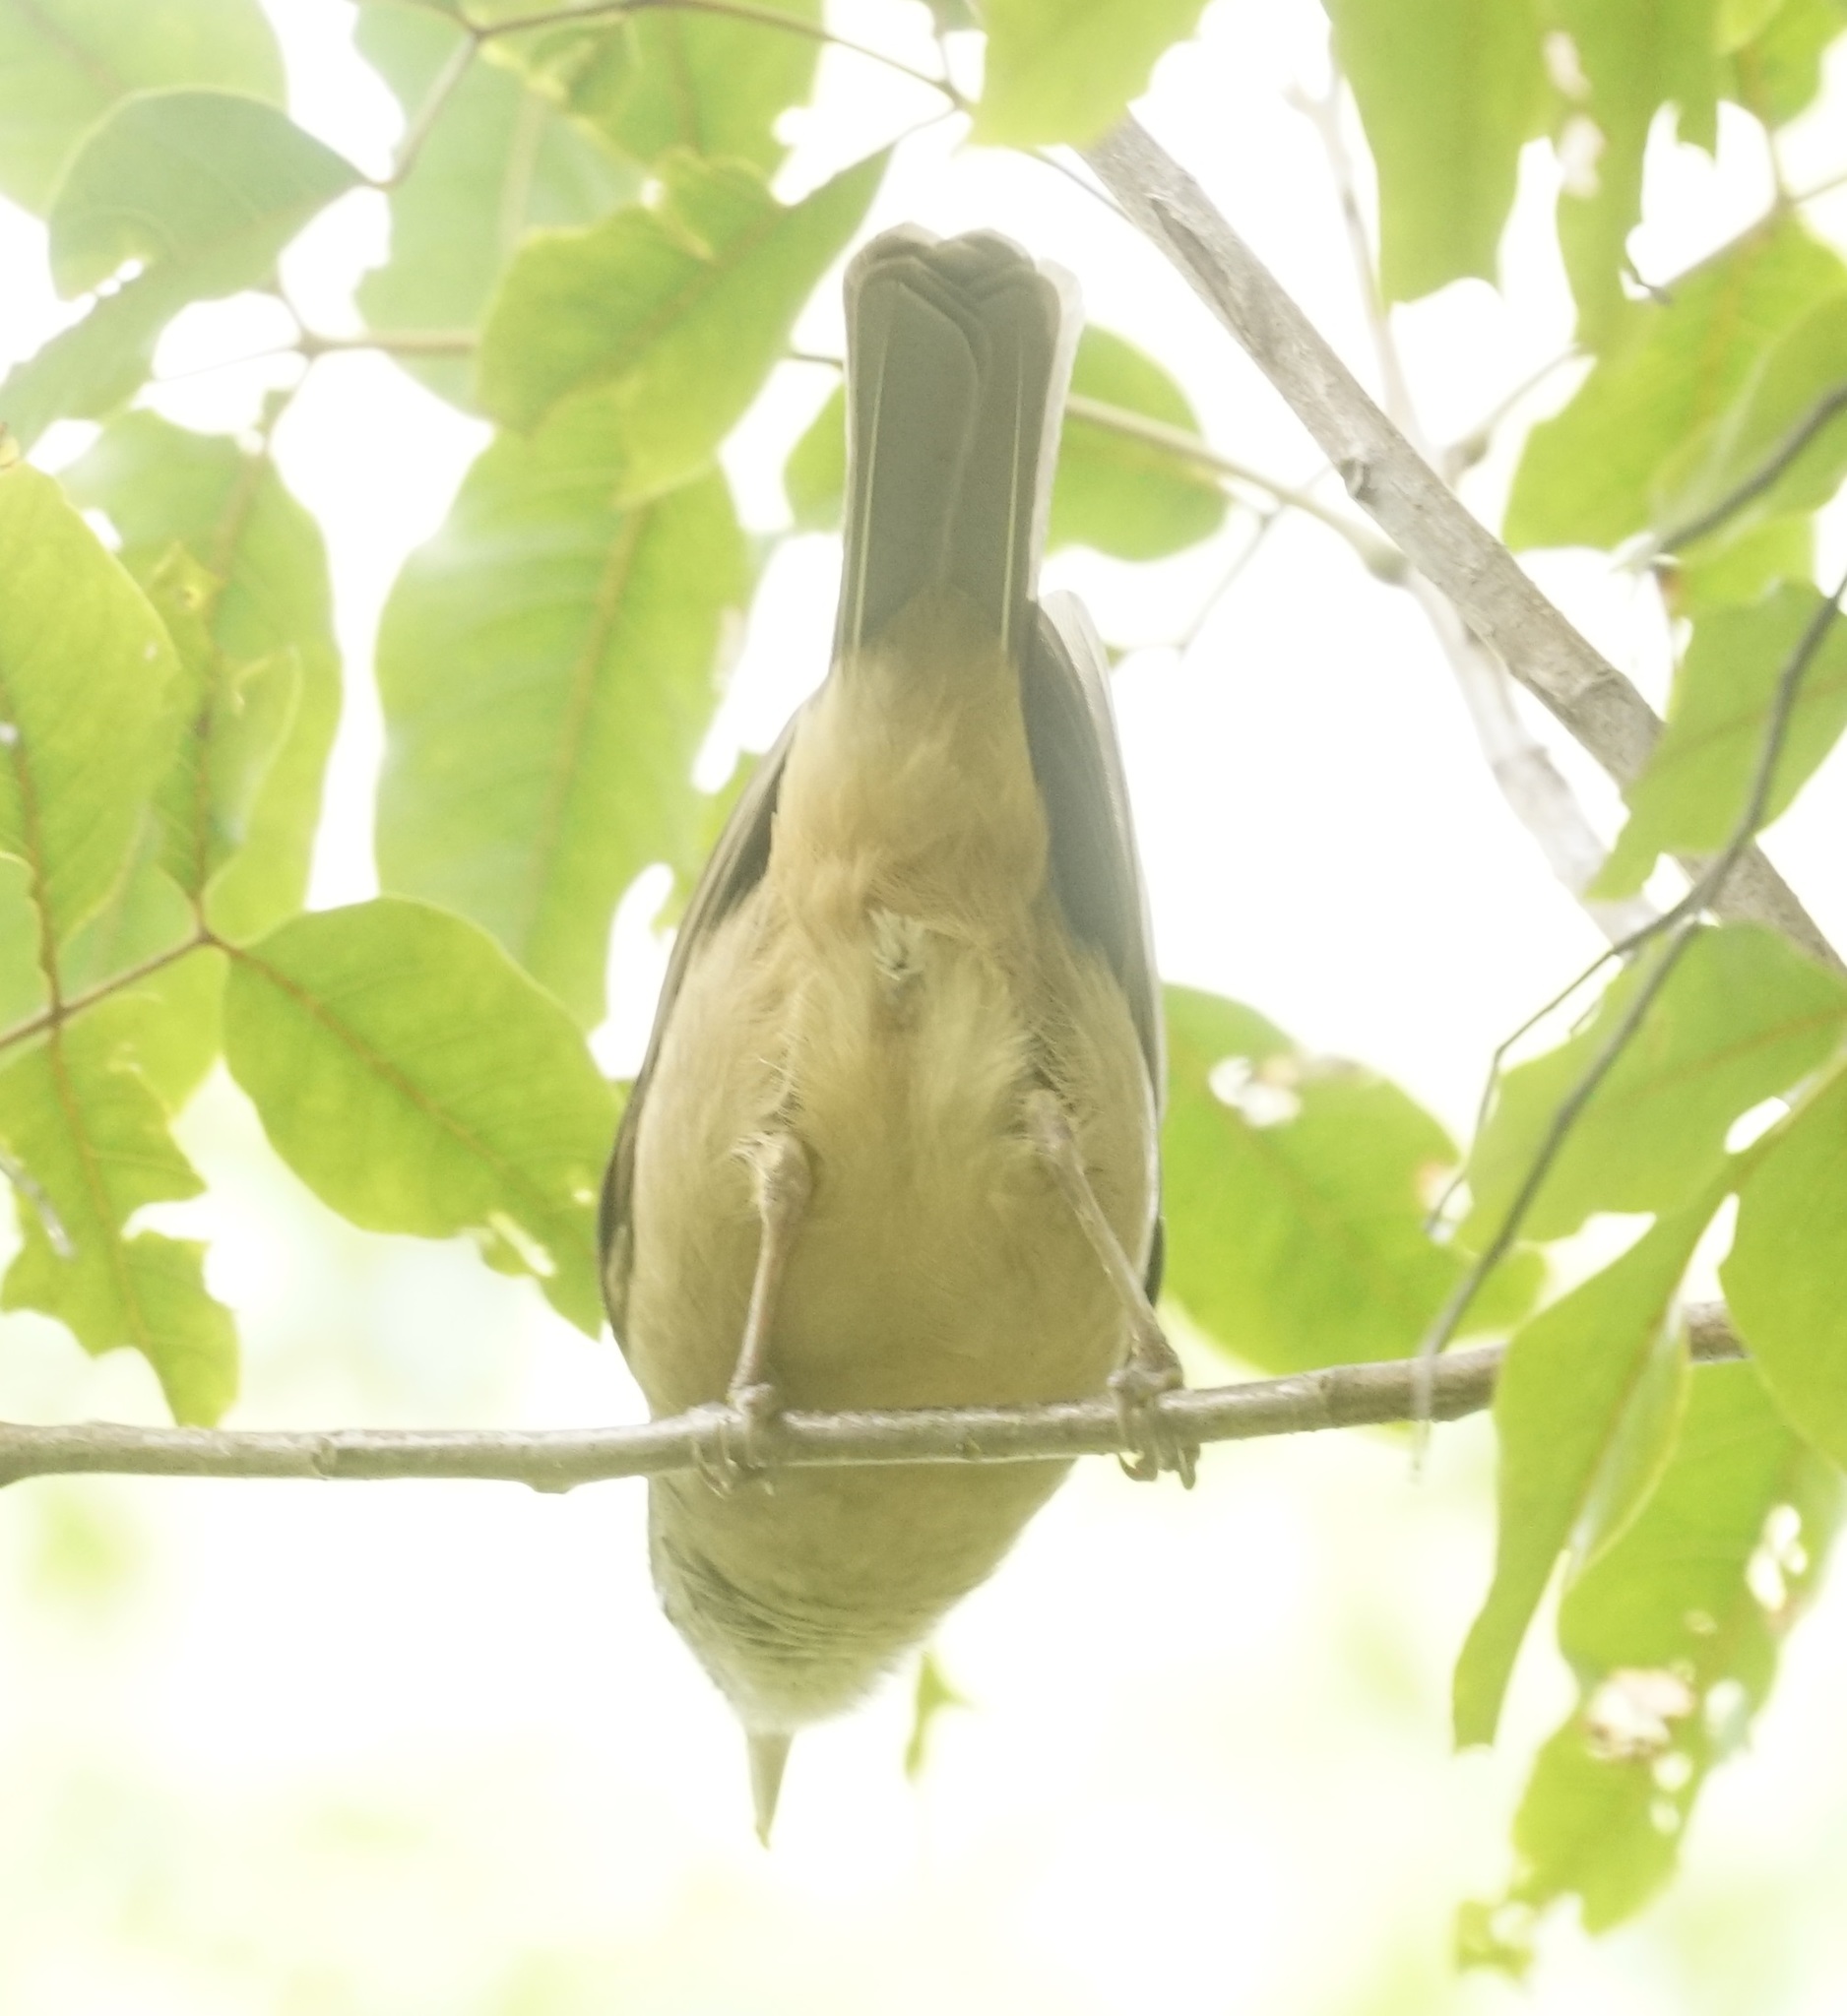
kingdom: Animalia
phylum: Chordata
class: Aves
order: Passeriformes
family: Pachycephalidae
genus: Colluricincla
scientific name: Colluricincla rufogaster
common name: Rufous shrikethrush
